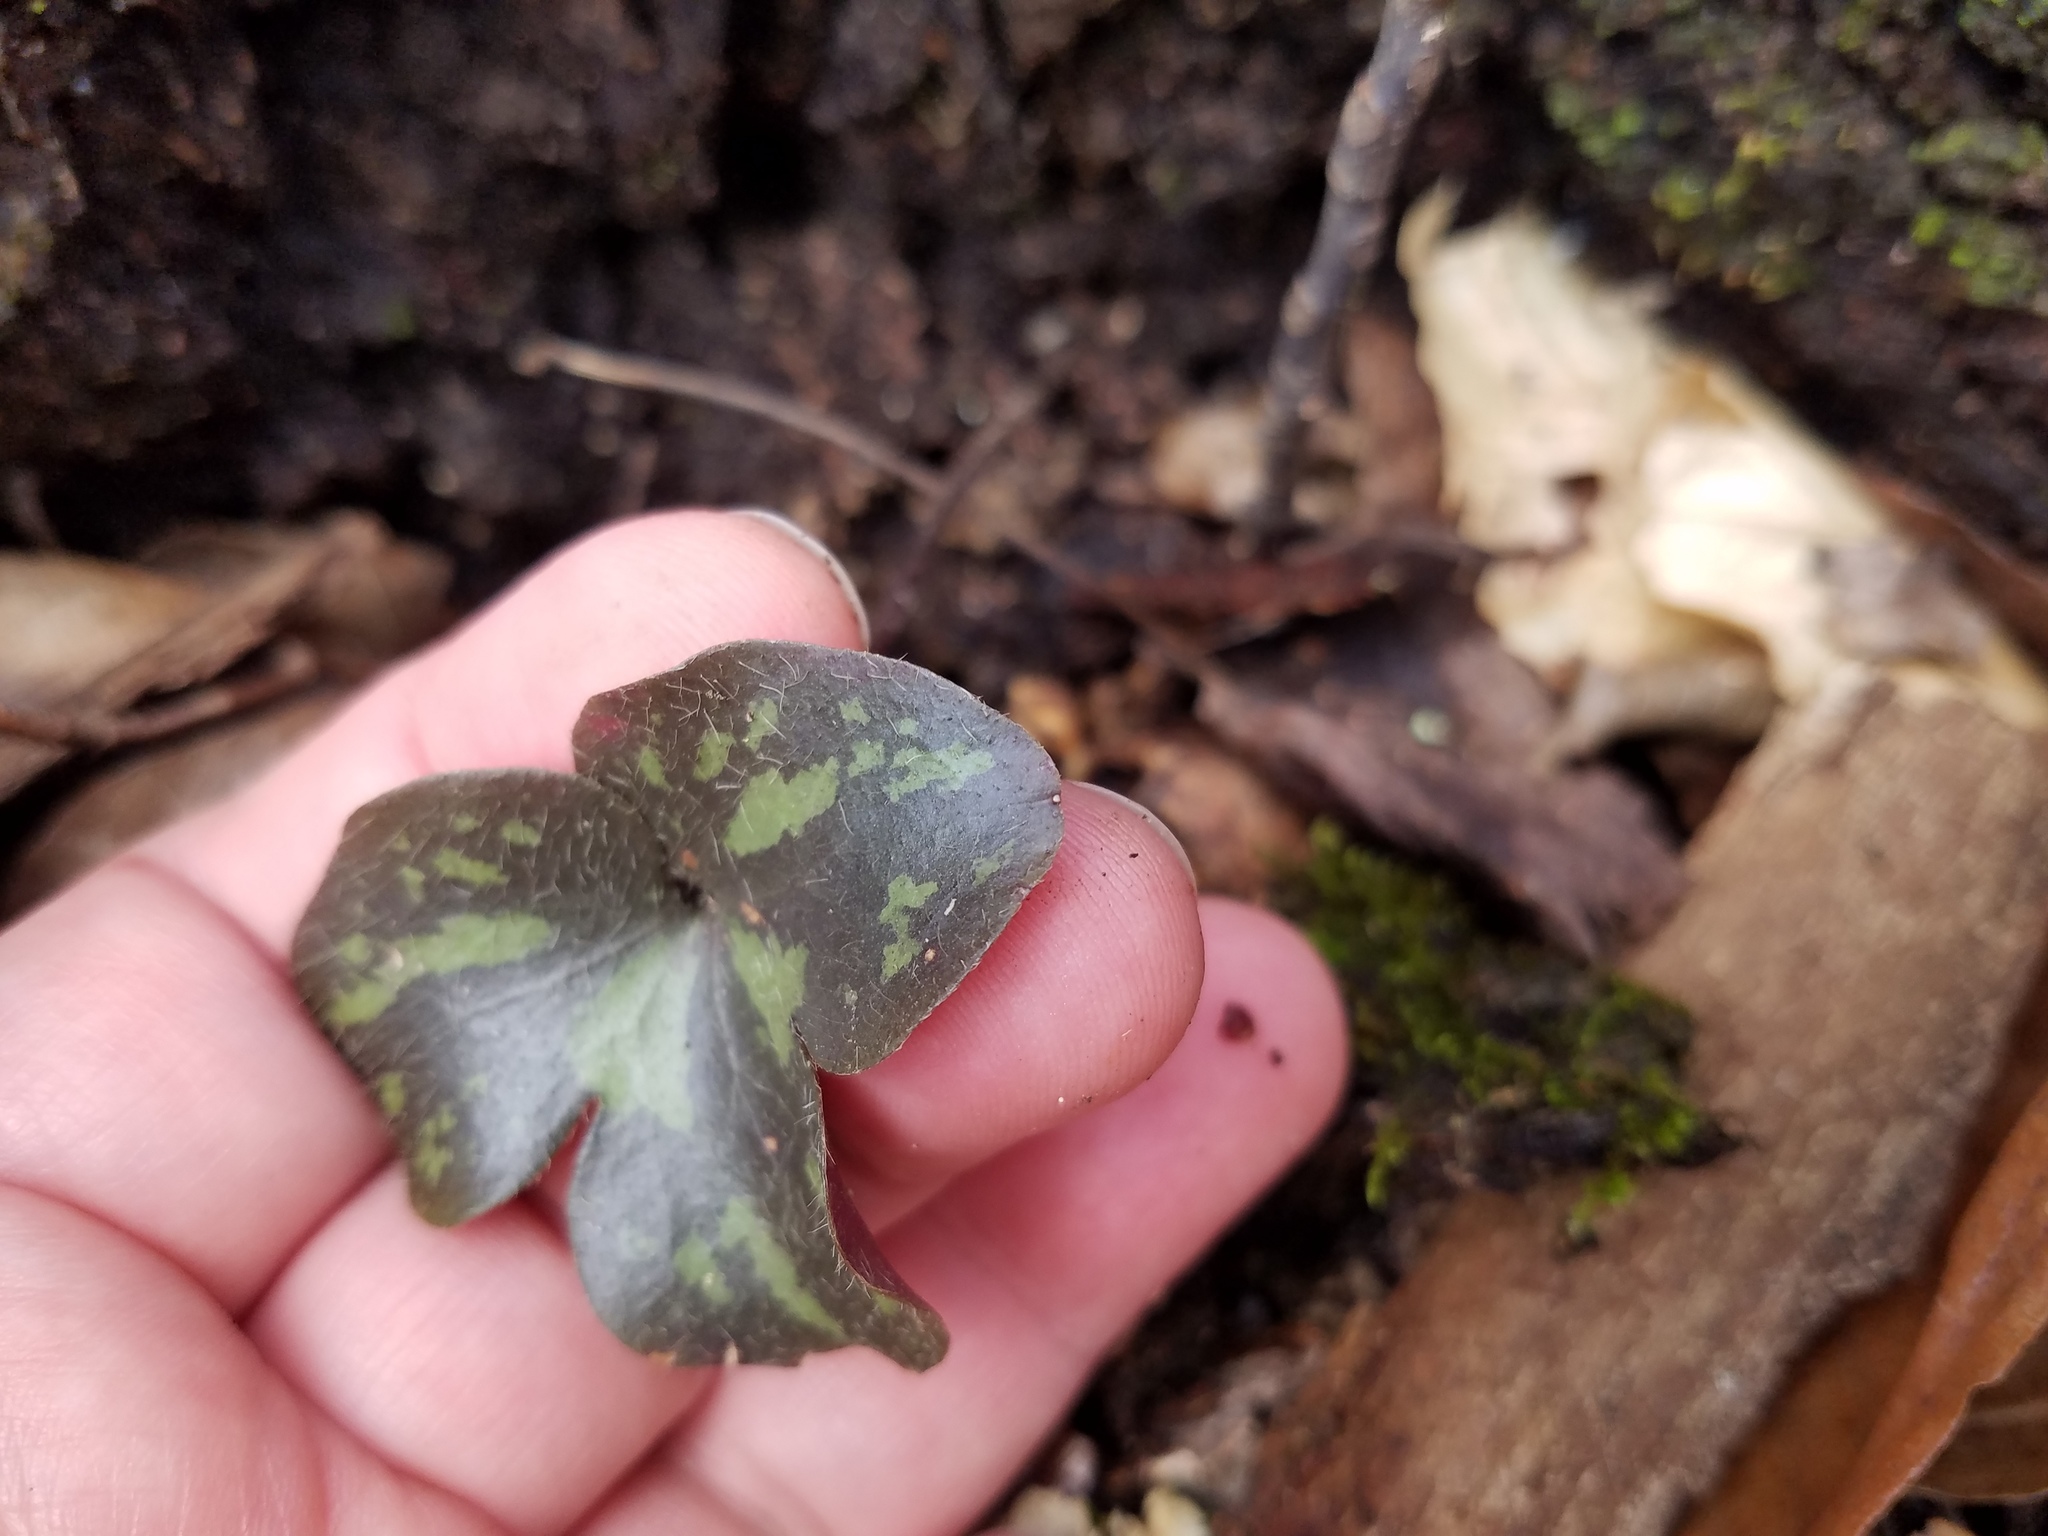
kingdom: Plantae
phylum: Tracheophyta
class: Magnoliopsida
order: Ranunculales
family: Ranunculaceae
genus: Hepatica
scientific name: Hepatica americana
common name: American hepatica
